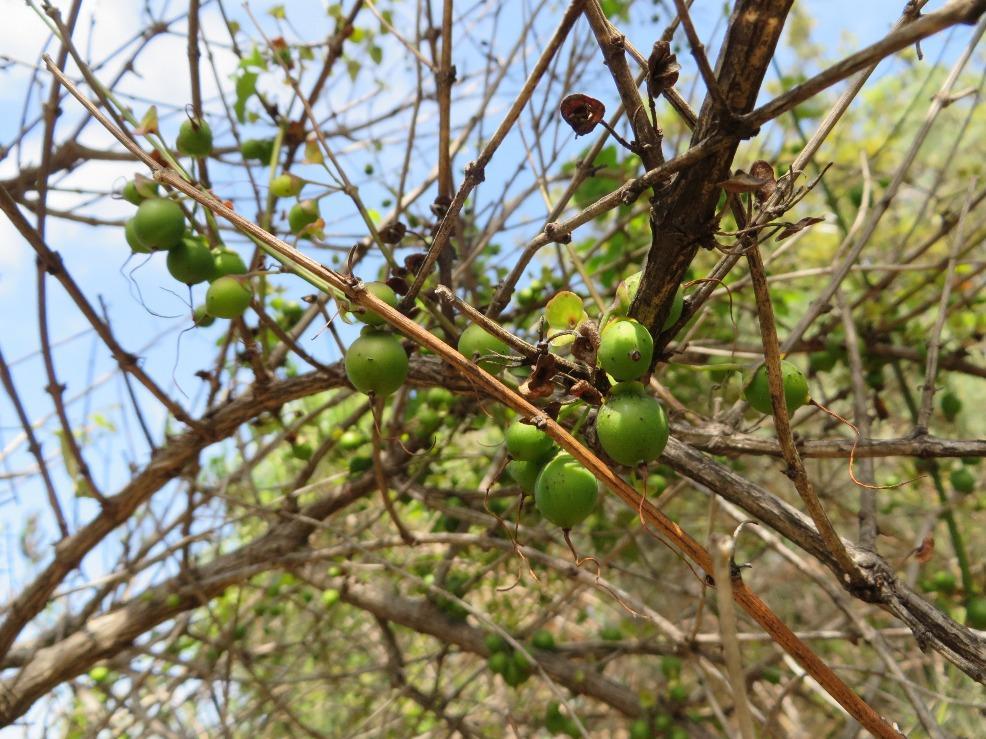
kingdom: Plantae
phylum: Tracheophyta
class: Magnoliopsida
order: Lamiales
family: Stilbaceae
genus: Halleria
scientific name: Halleria lucida
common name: Tree fuschia
